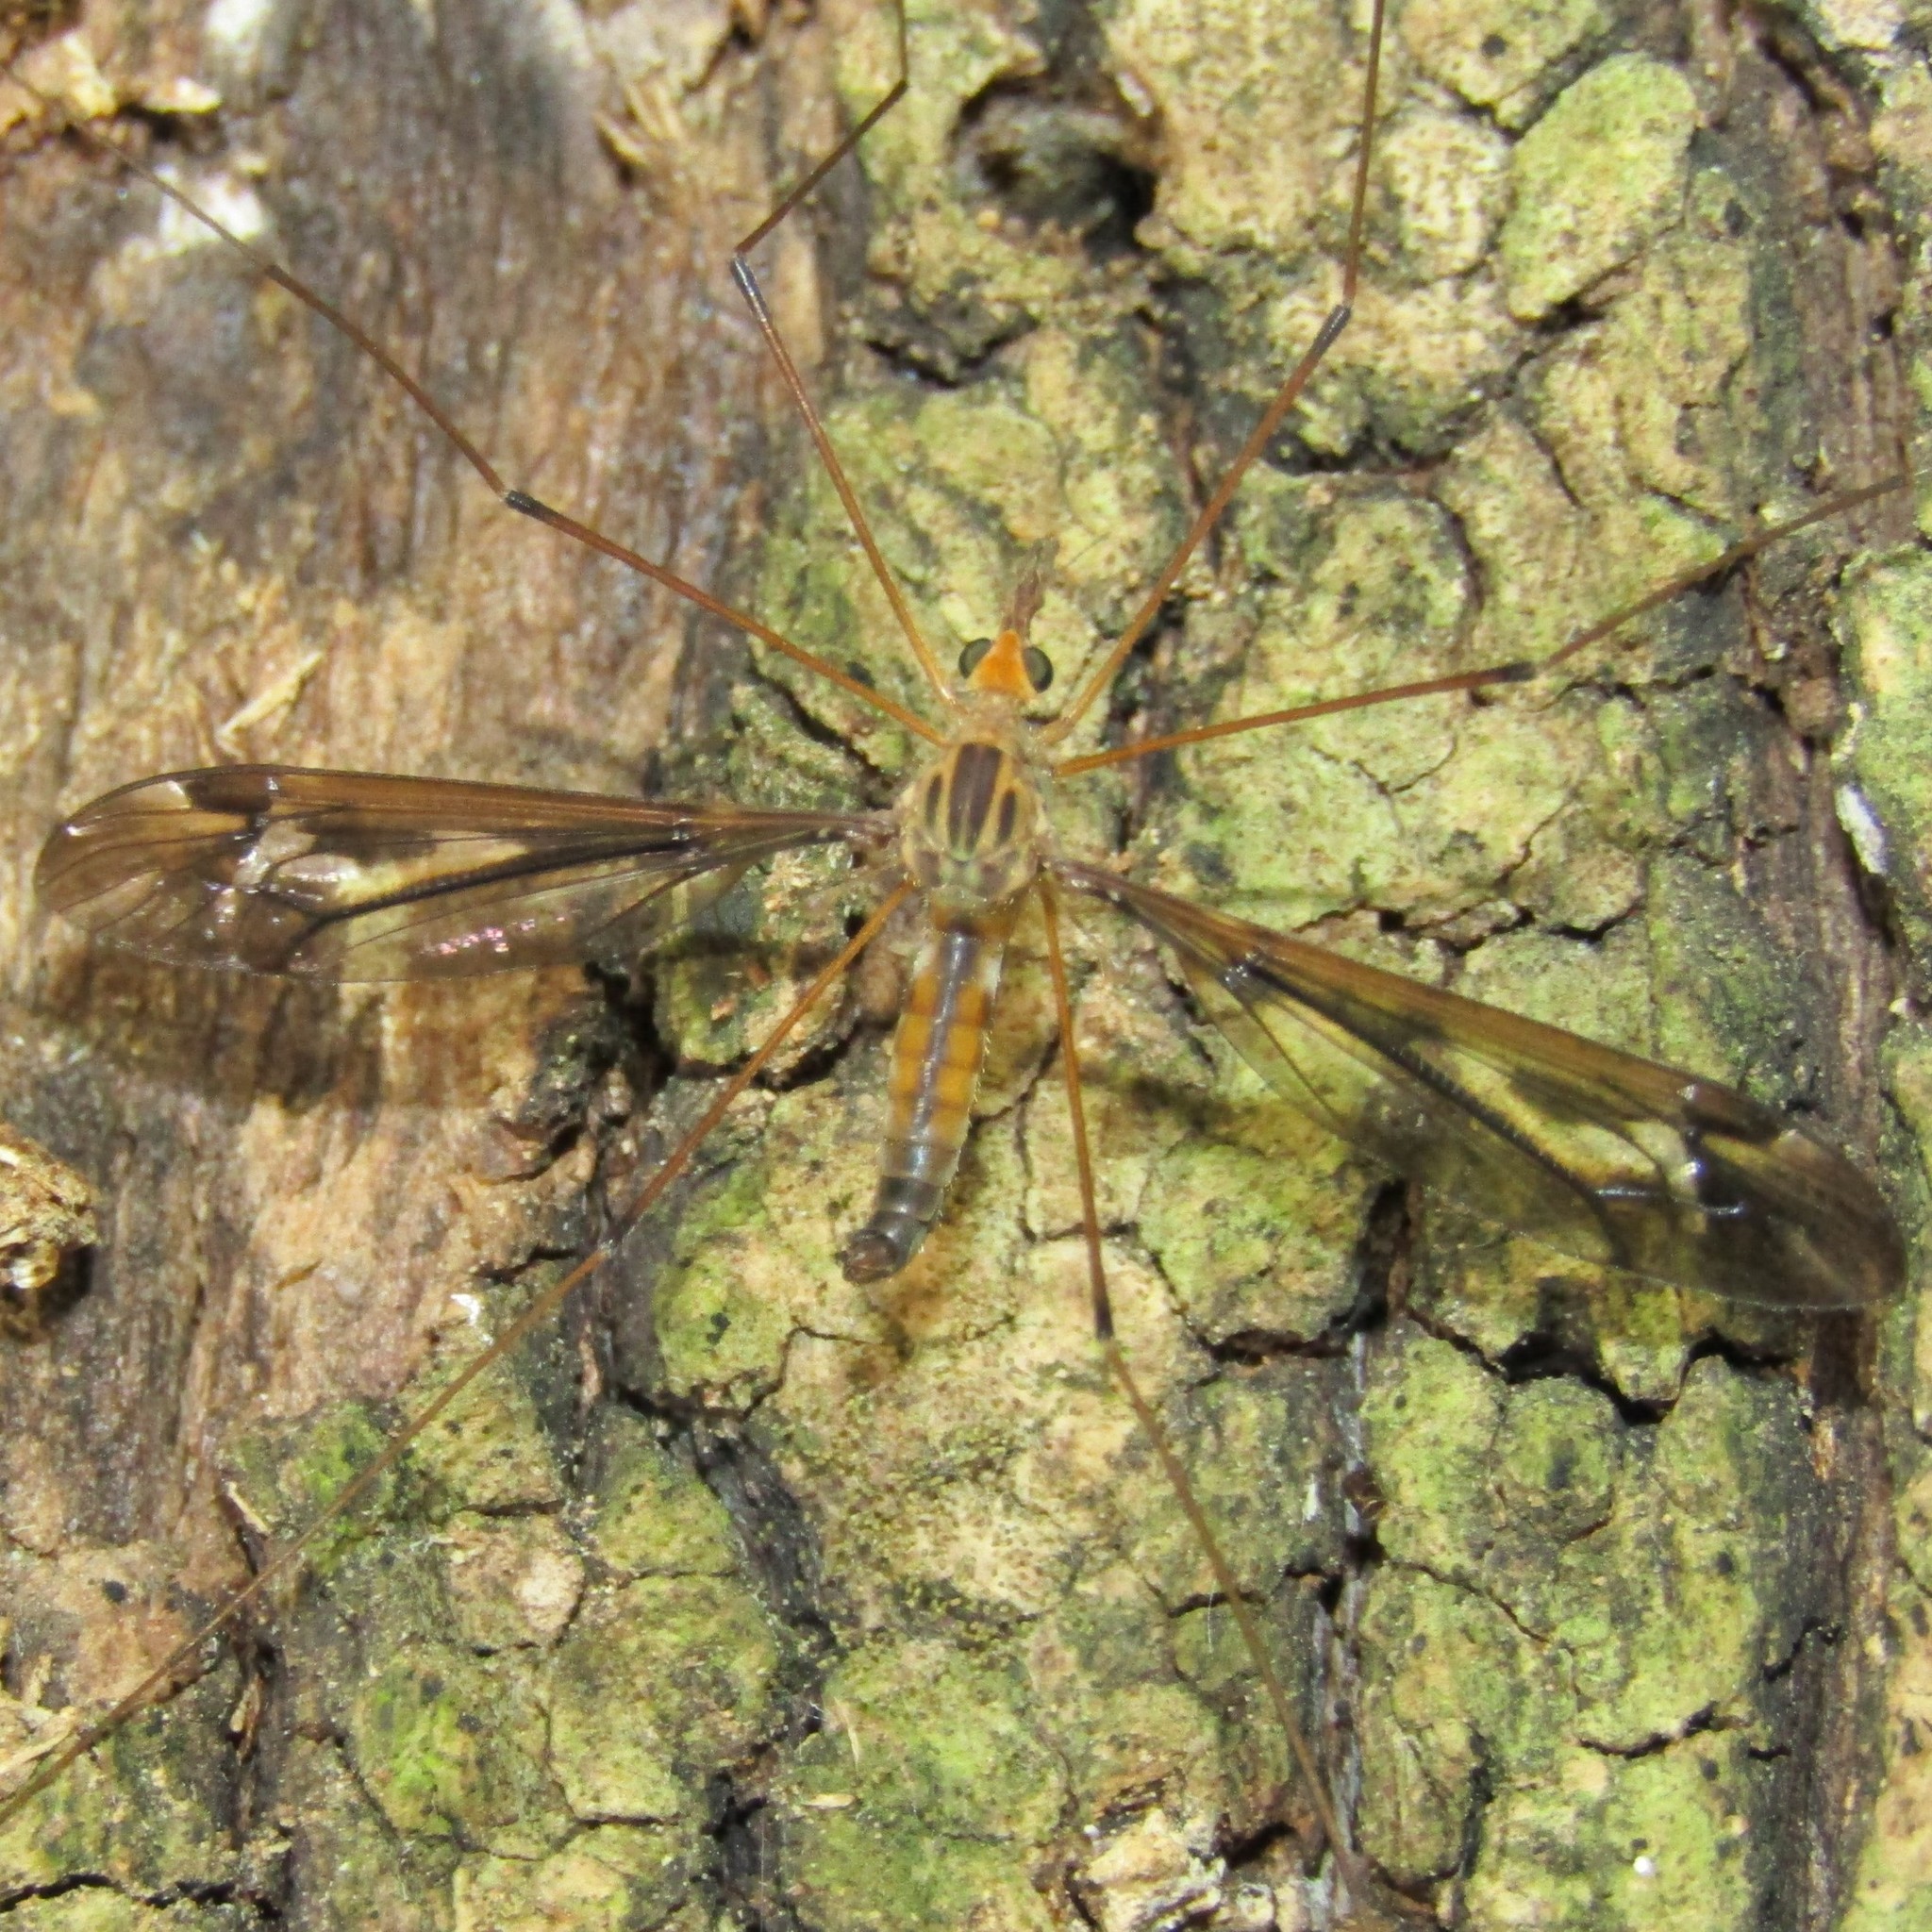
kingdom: Animalia
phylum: Arthropoda
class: Insecta
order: Diptera
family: Tipulidae
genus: Leptotarsus
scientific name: Leptotarsus huttoni
